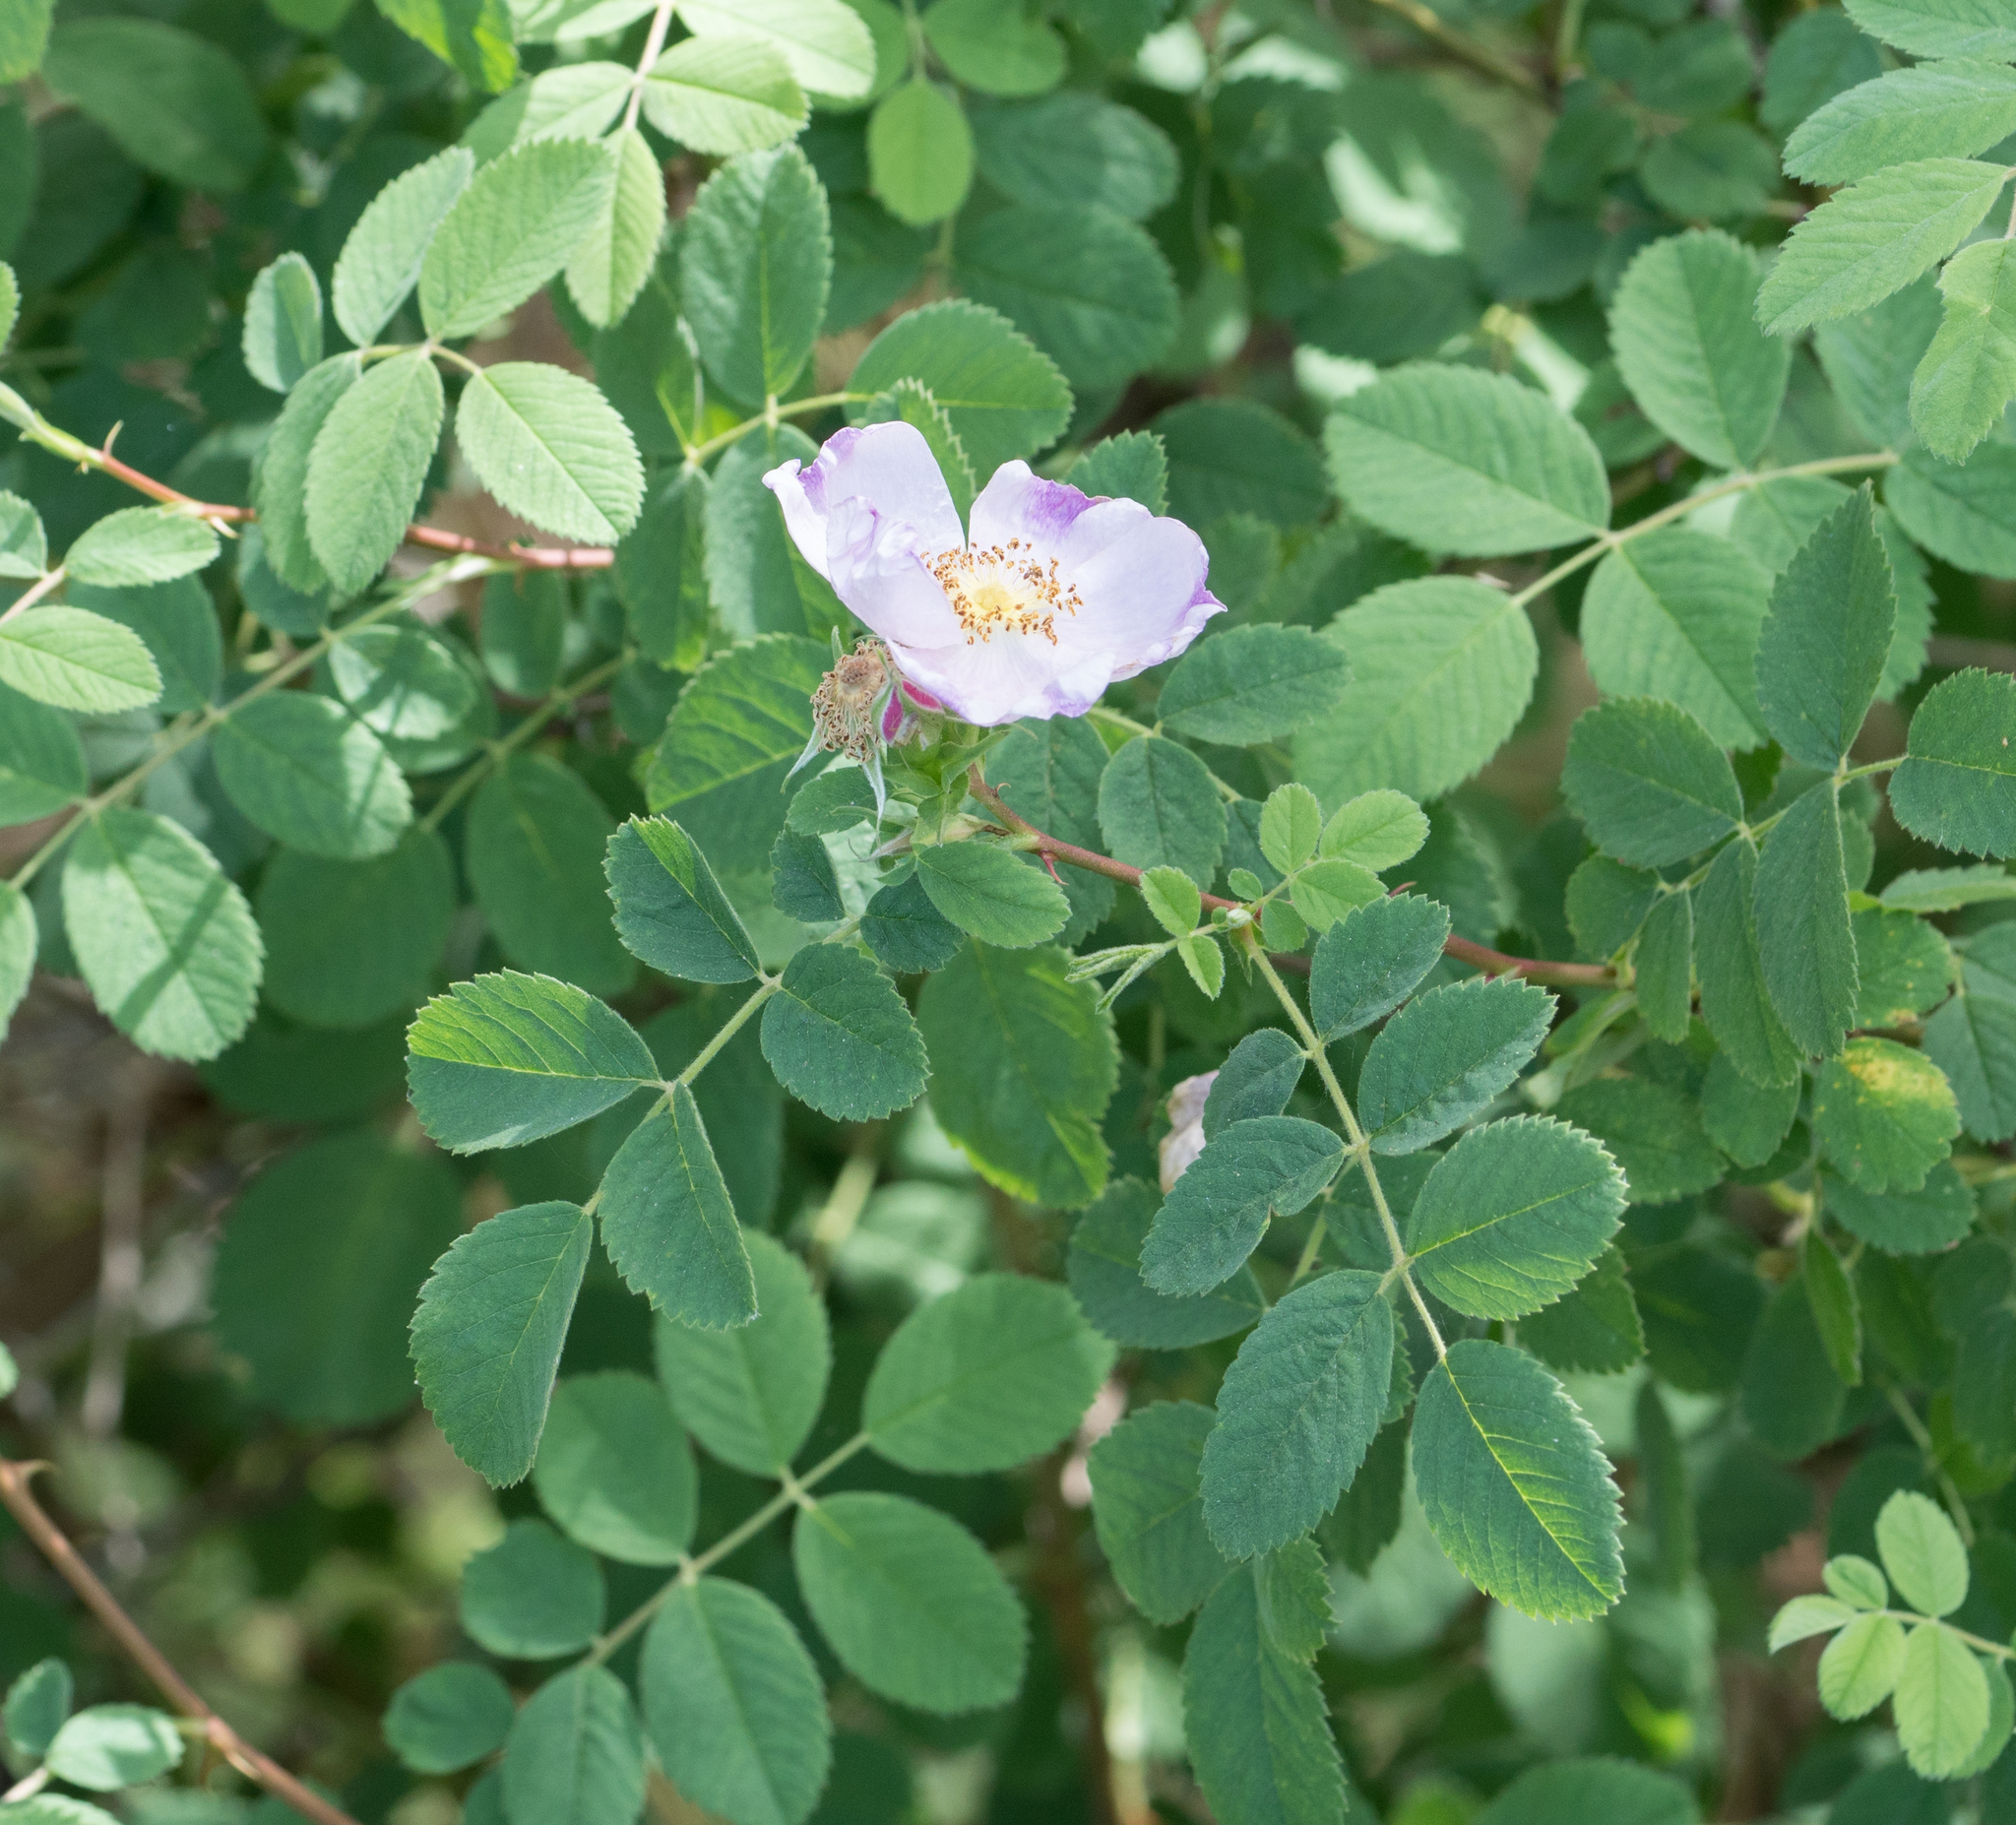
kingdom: Plantae
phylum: Tracheophyta
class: Magnoliopsida
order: Rosales
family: Rosaceae
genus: Rosa
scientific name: Rosa californica
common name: California rose
